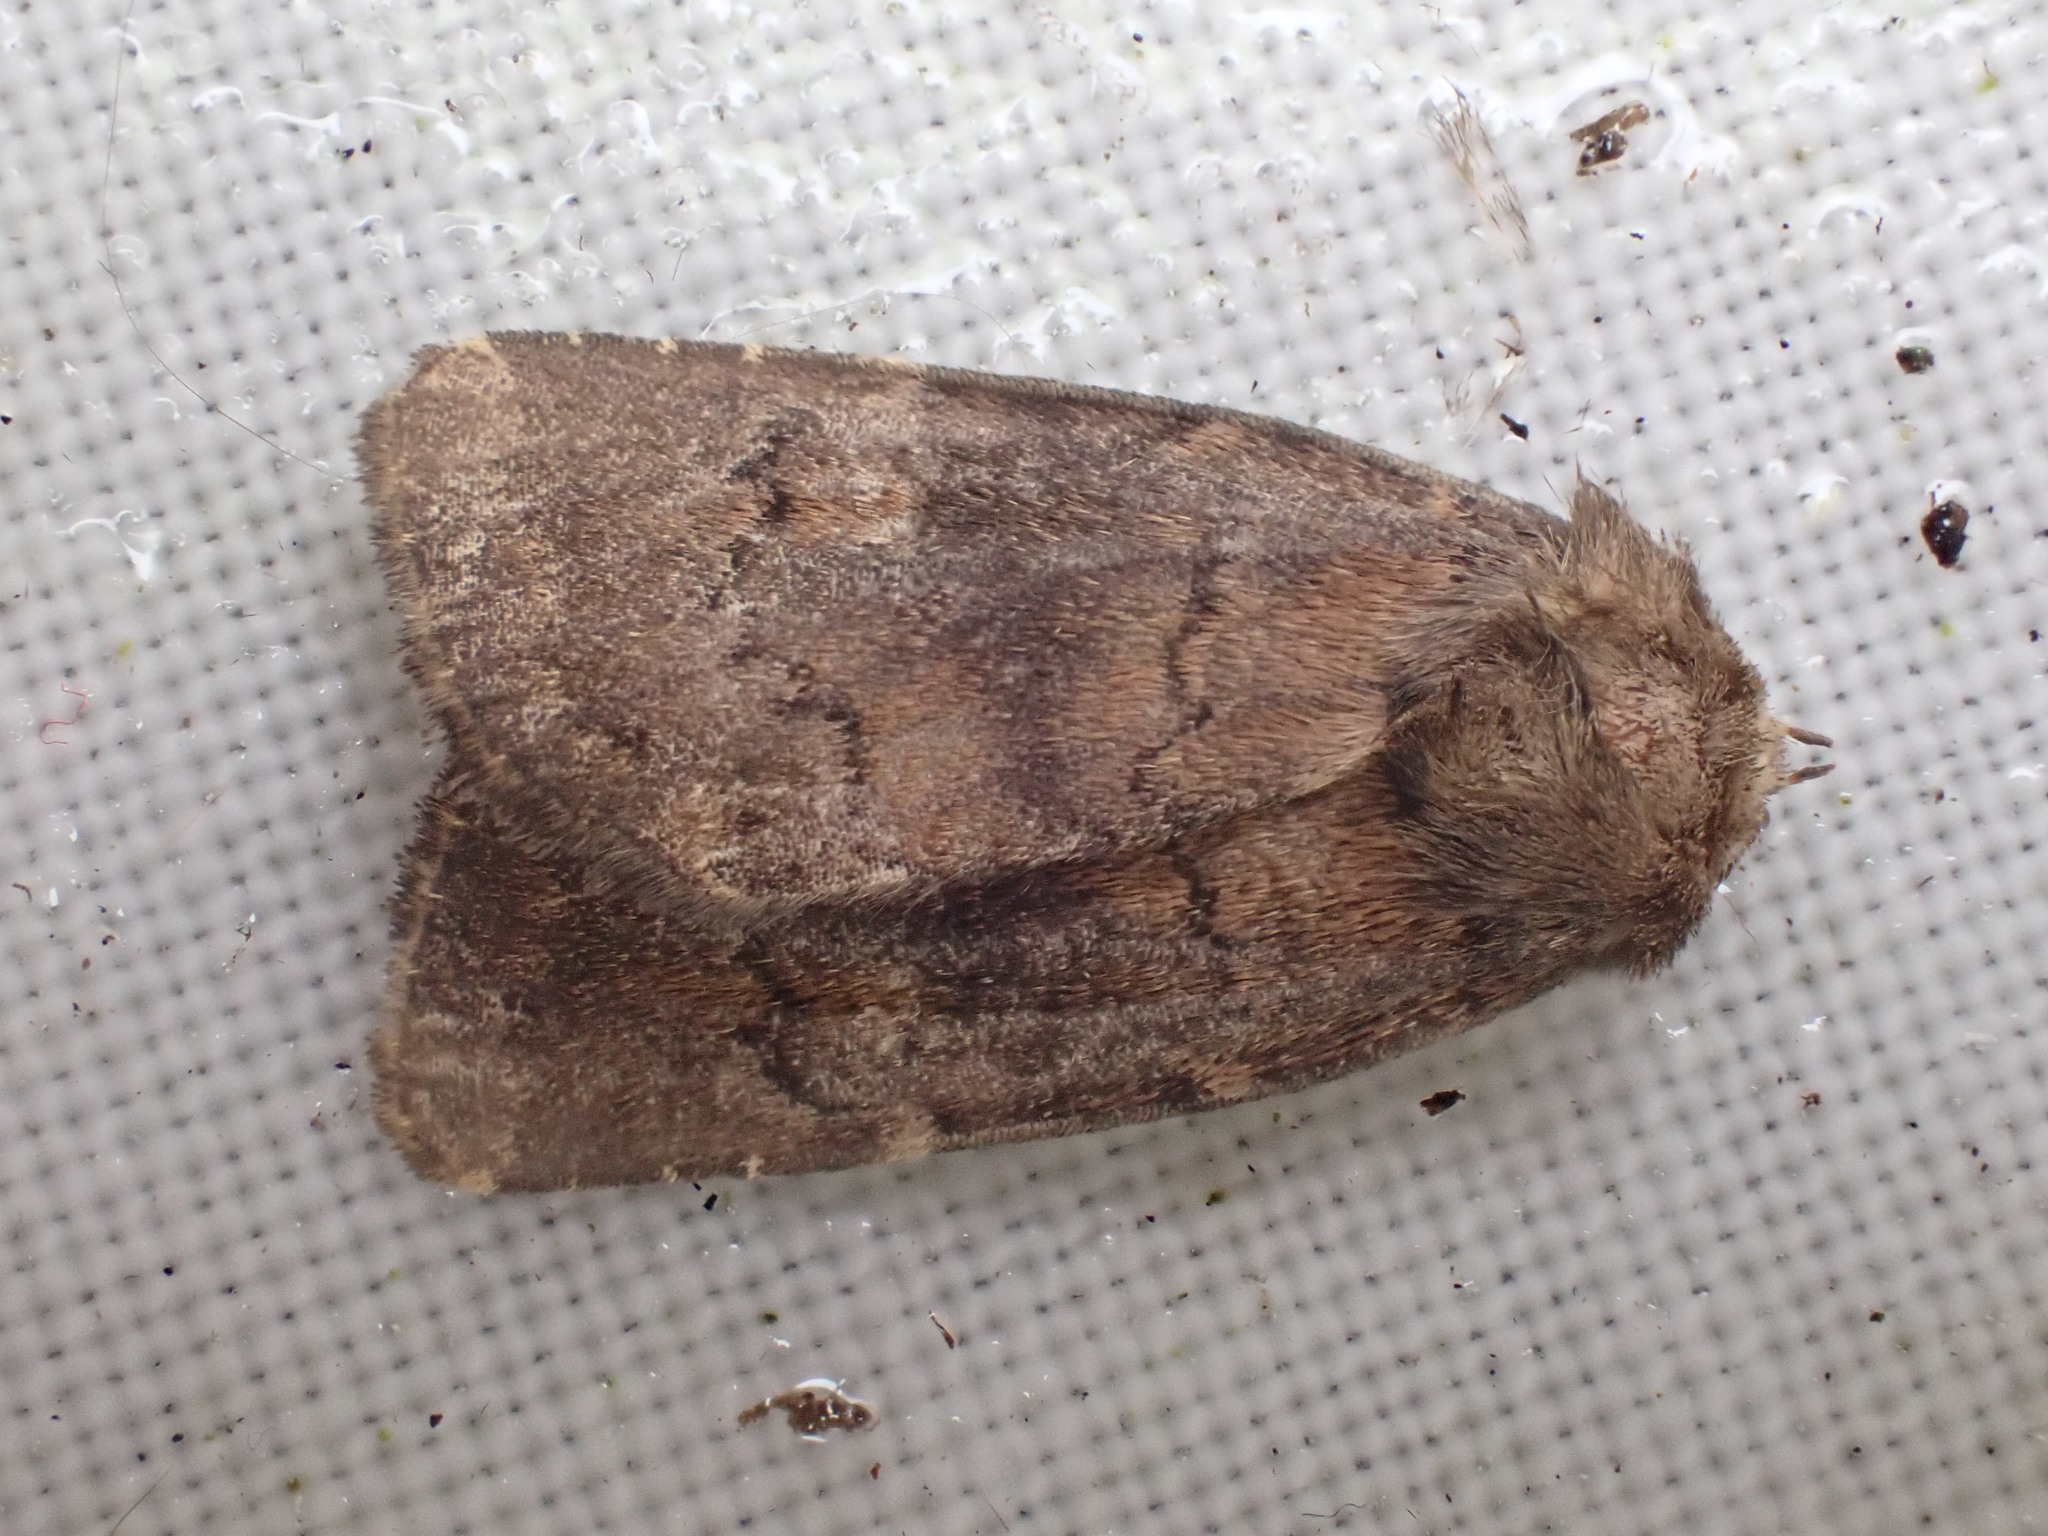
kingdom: Animalia
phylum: Arthropoda
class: Insecta
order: Lepidoptera
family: Noctuidae
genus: Charanyca
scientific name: Charanyca ferruginea
